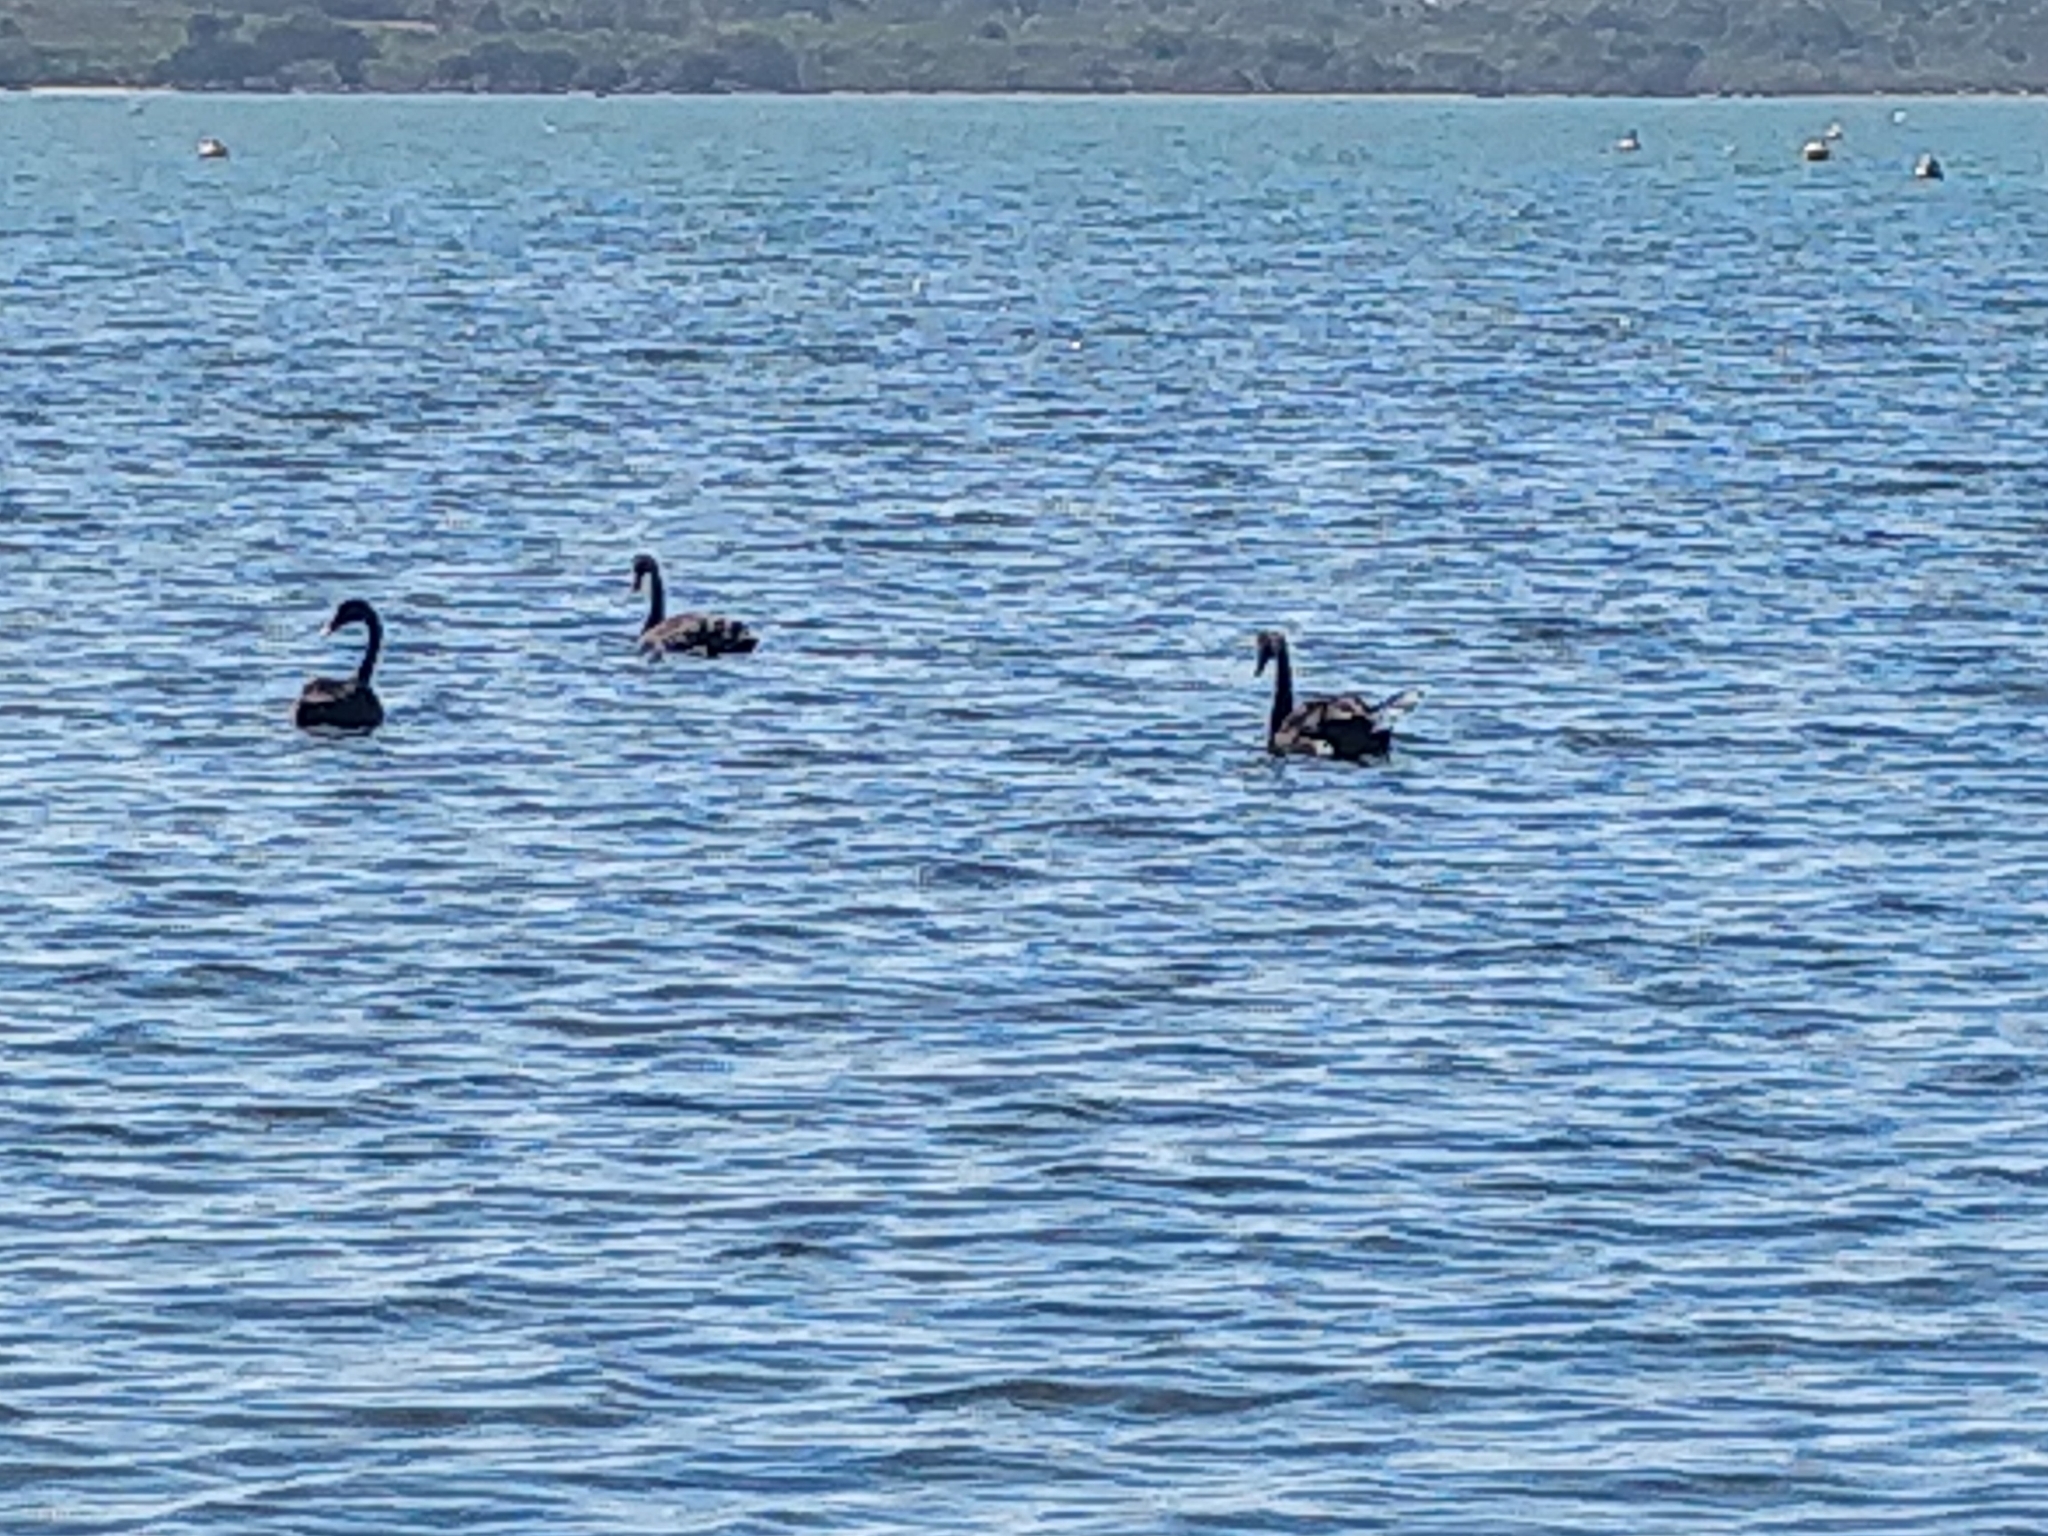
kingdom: Animalia
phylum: Chordata
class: Aves
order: Anseriformes
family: Anatidae
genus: Cygnus
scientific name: Cygnus atratus
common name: Black swan
